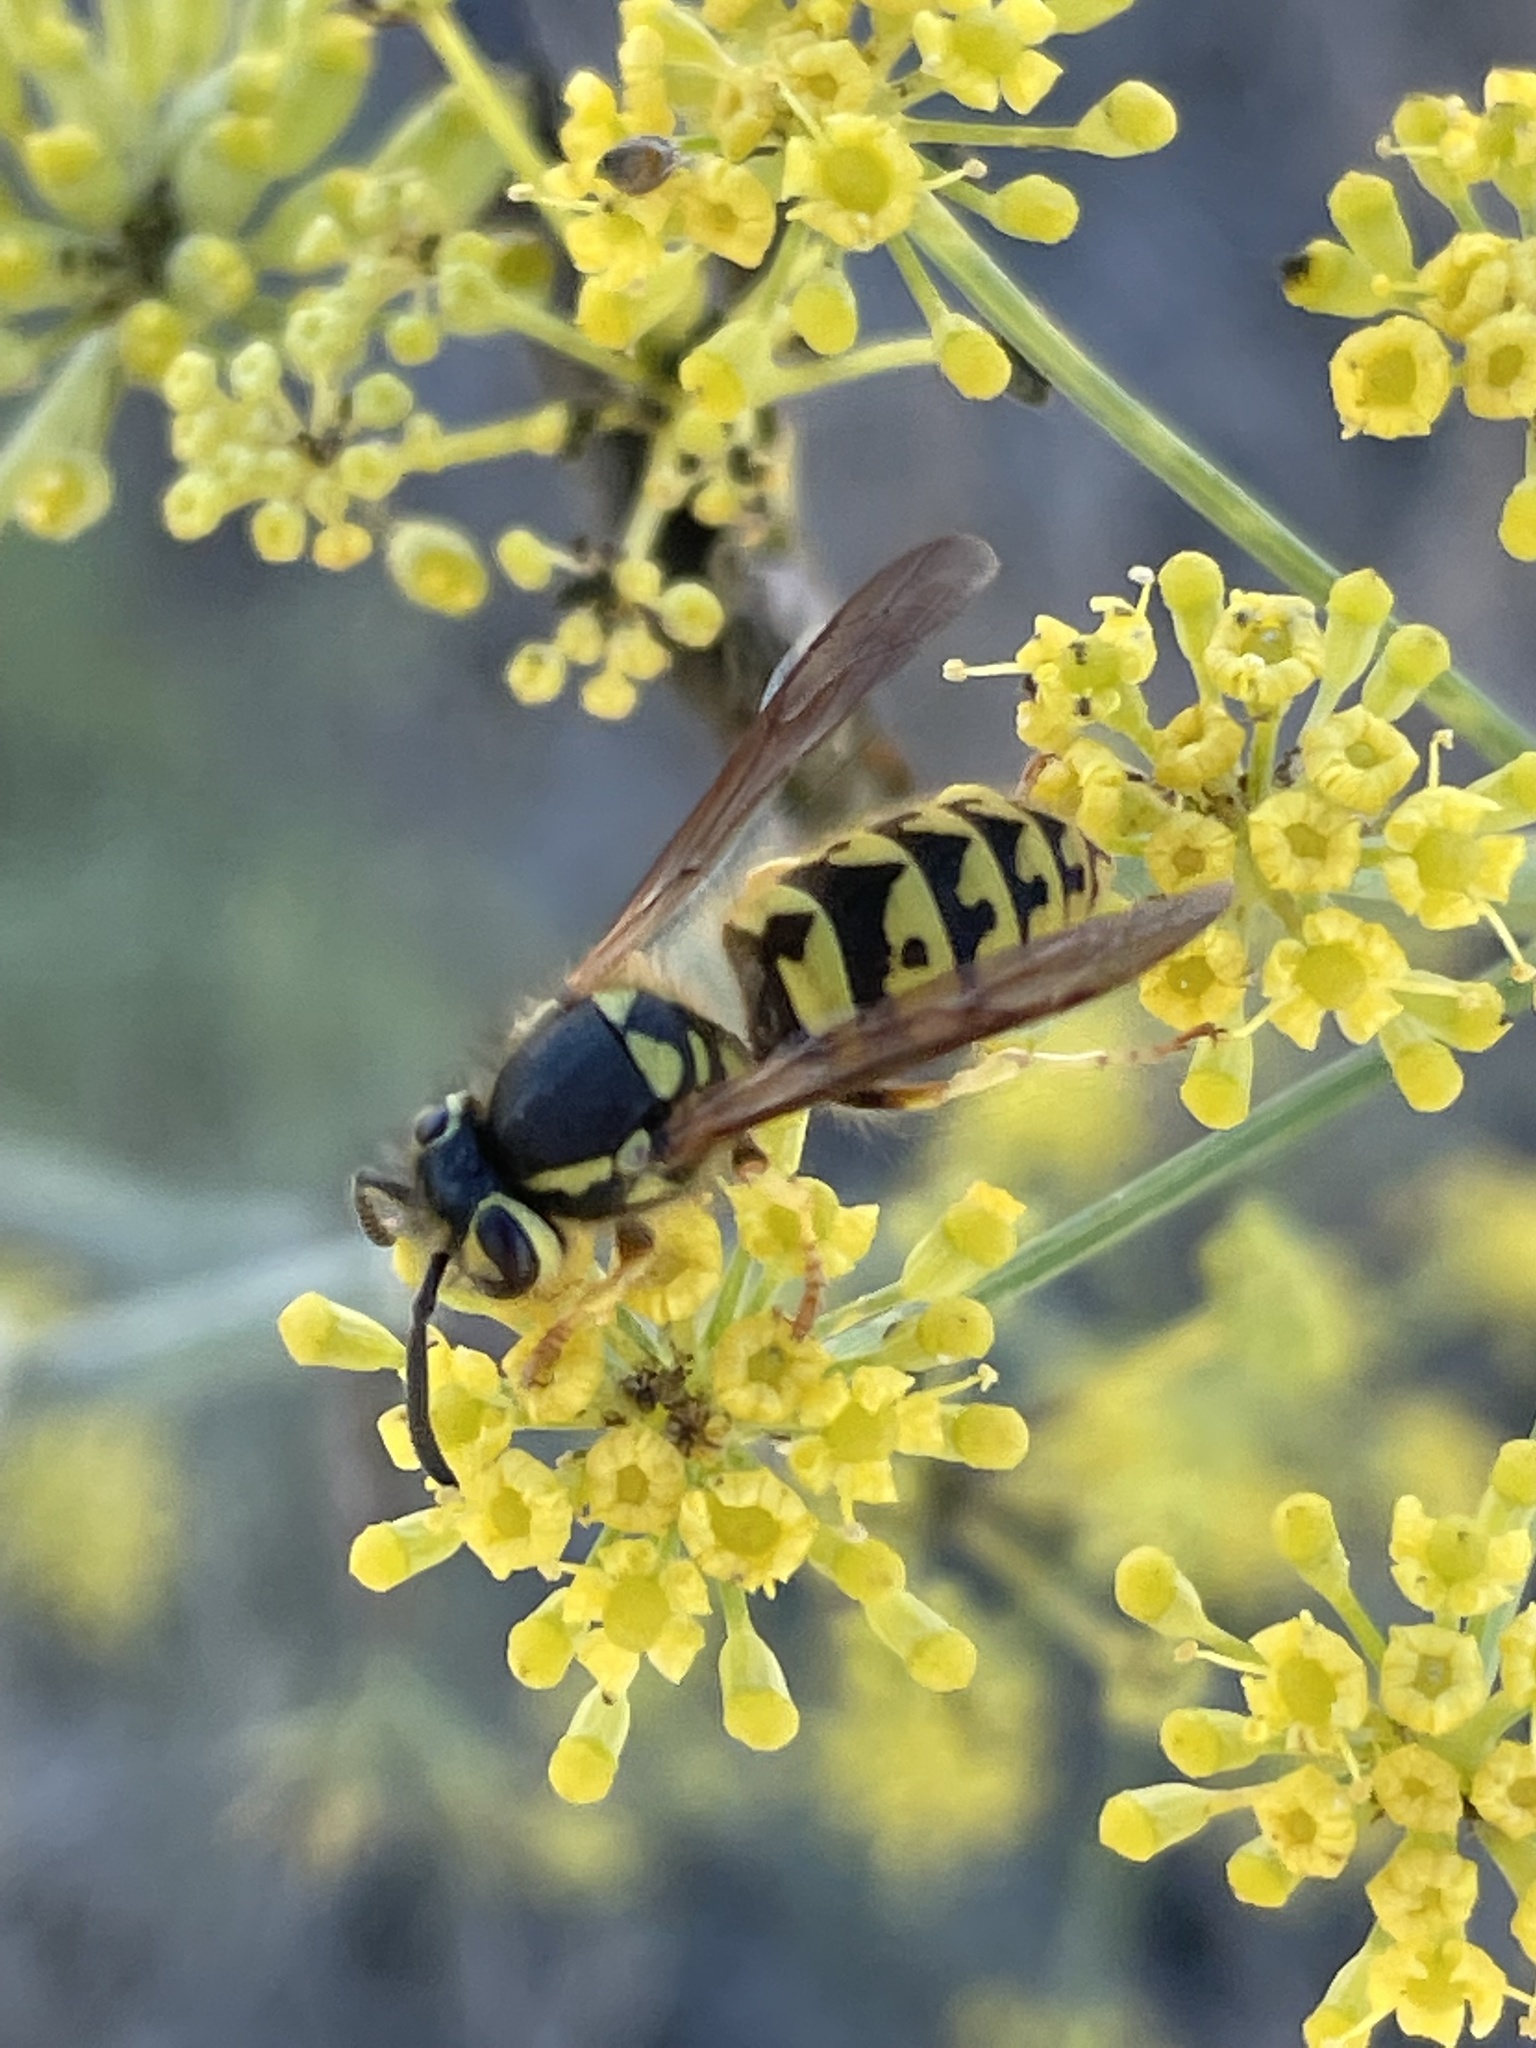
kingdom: Animalia
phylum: Arthropoda
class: Insecta
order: Hymenoptera
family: Vespidae
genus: Vespula
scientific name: Vespula pensylvanica
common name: Western yellowjacket
